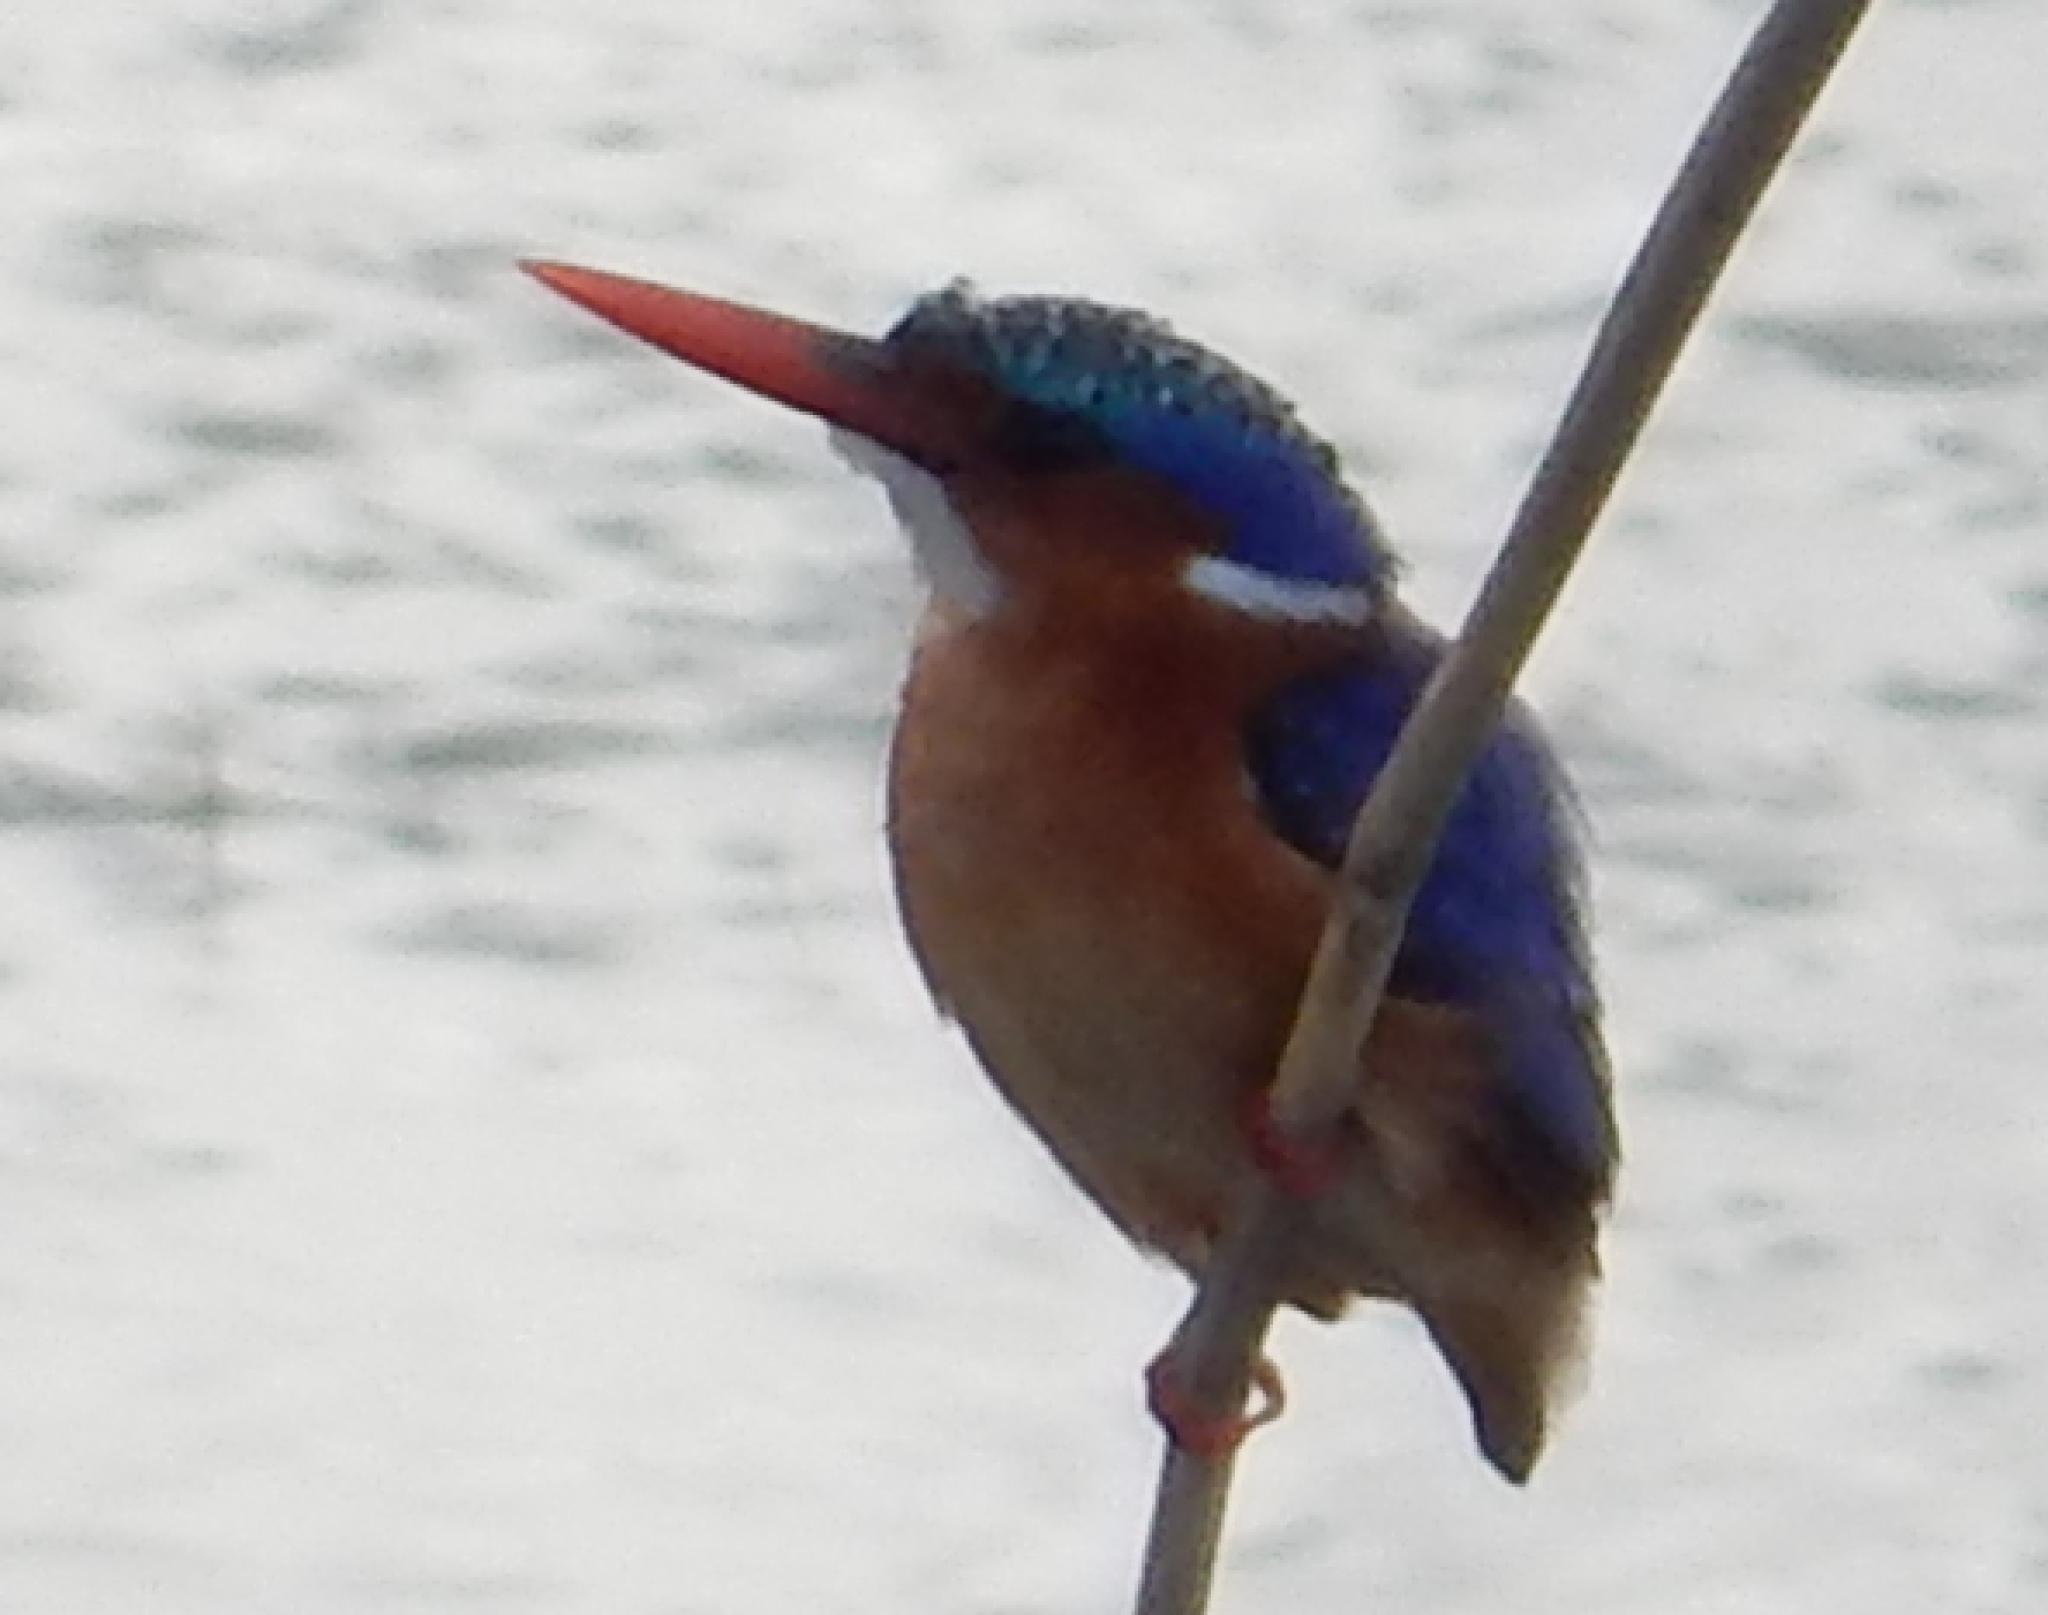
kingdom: Animalia
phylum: Chordata
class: Aves
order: Coraciiformes
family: Alcedinidae
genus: Corythornis
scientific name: Corythornis cristatus
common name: Malachite kingfisher
